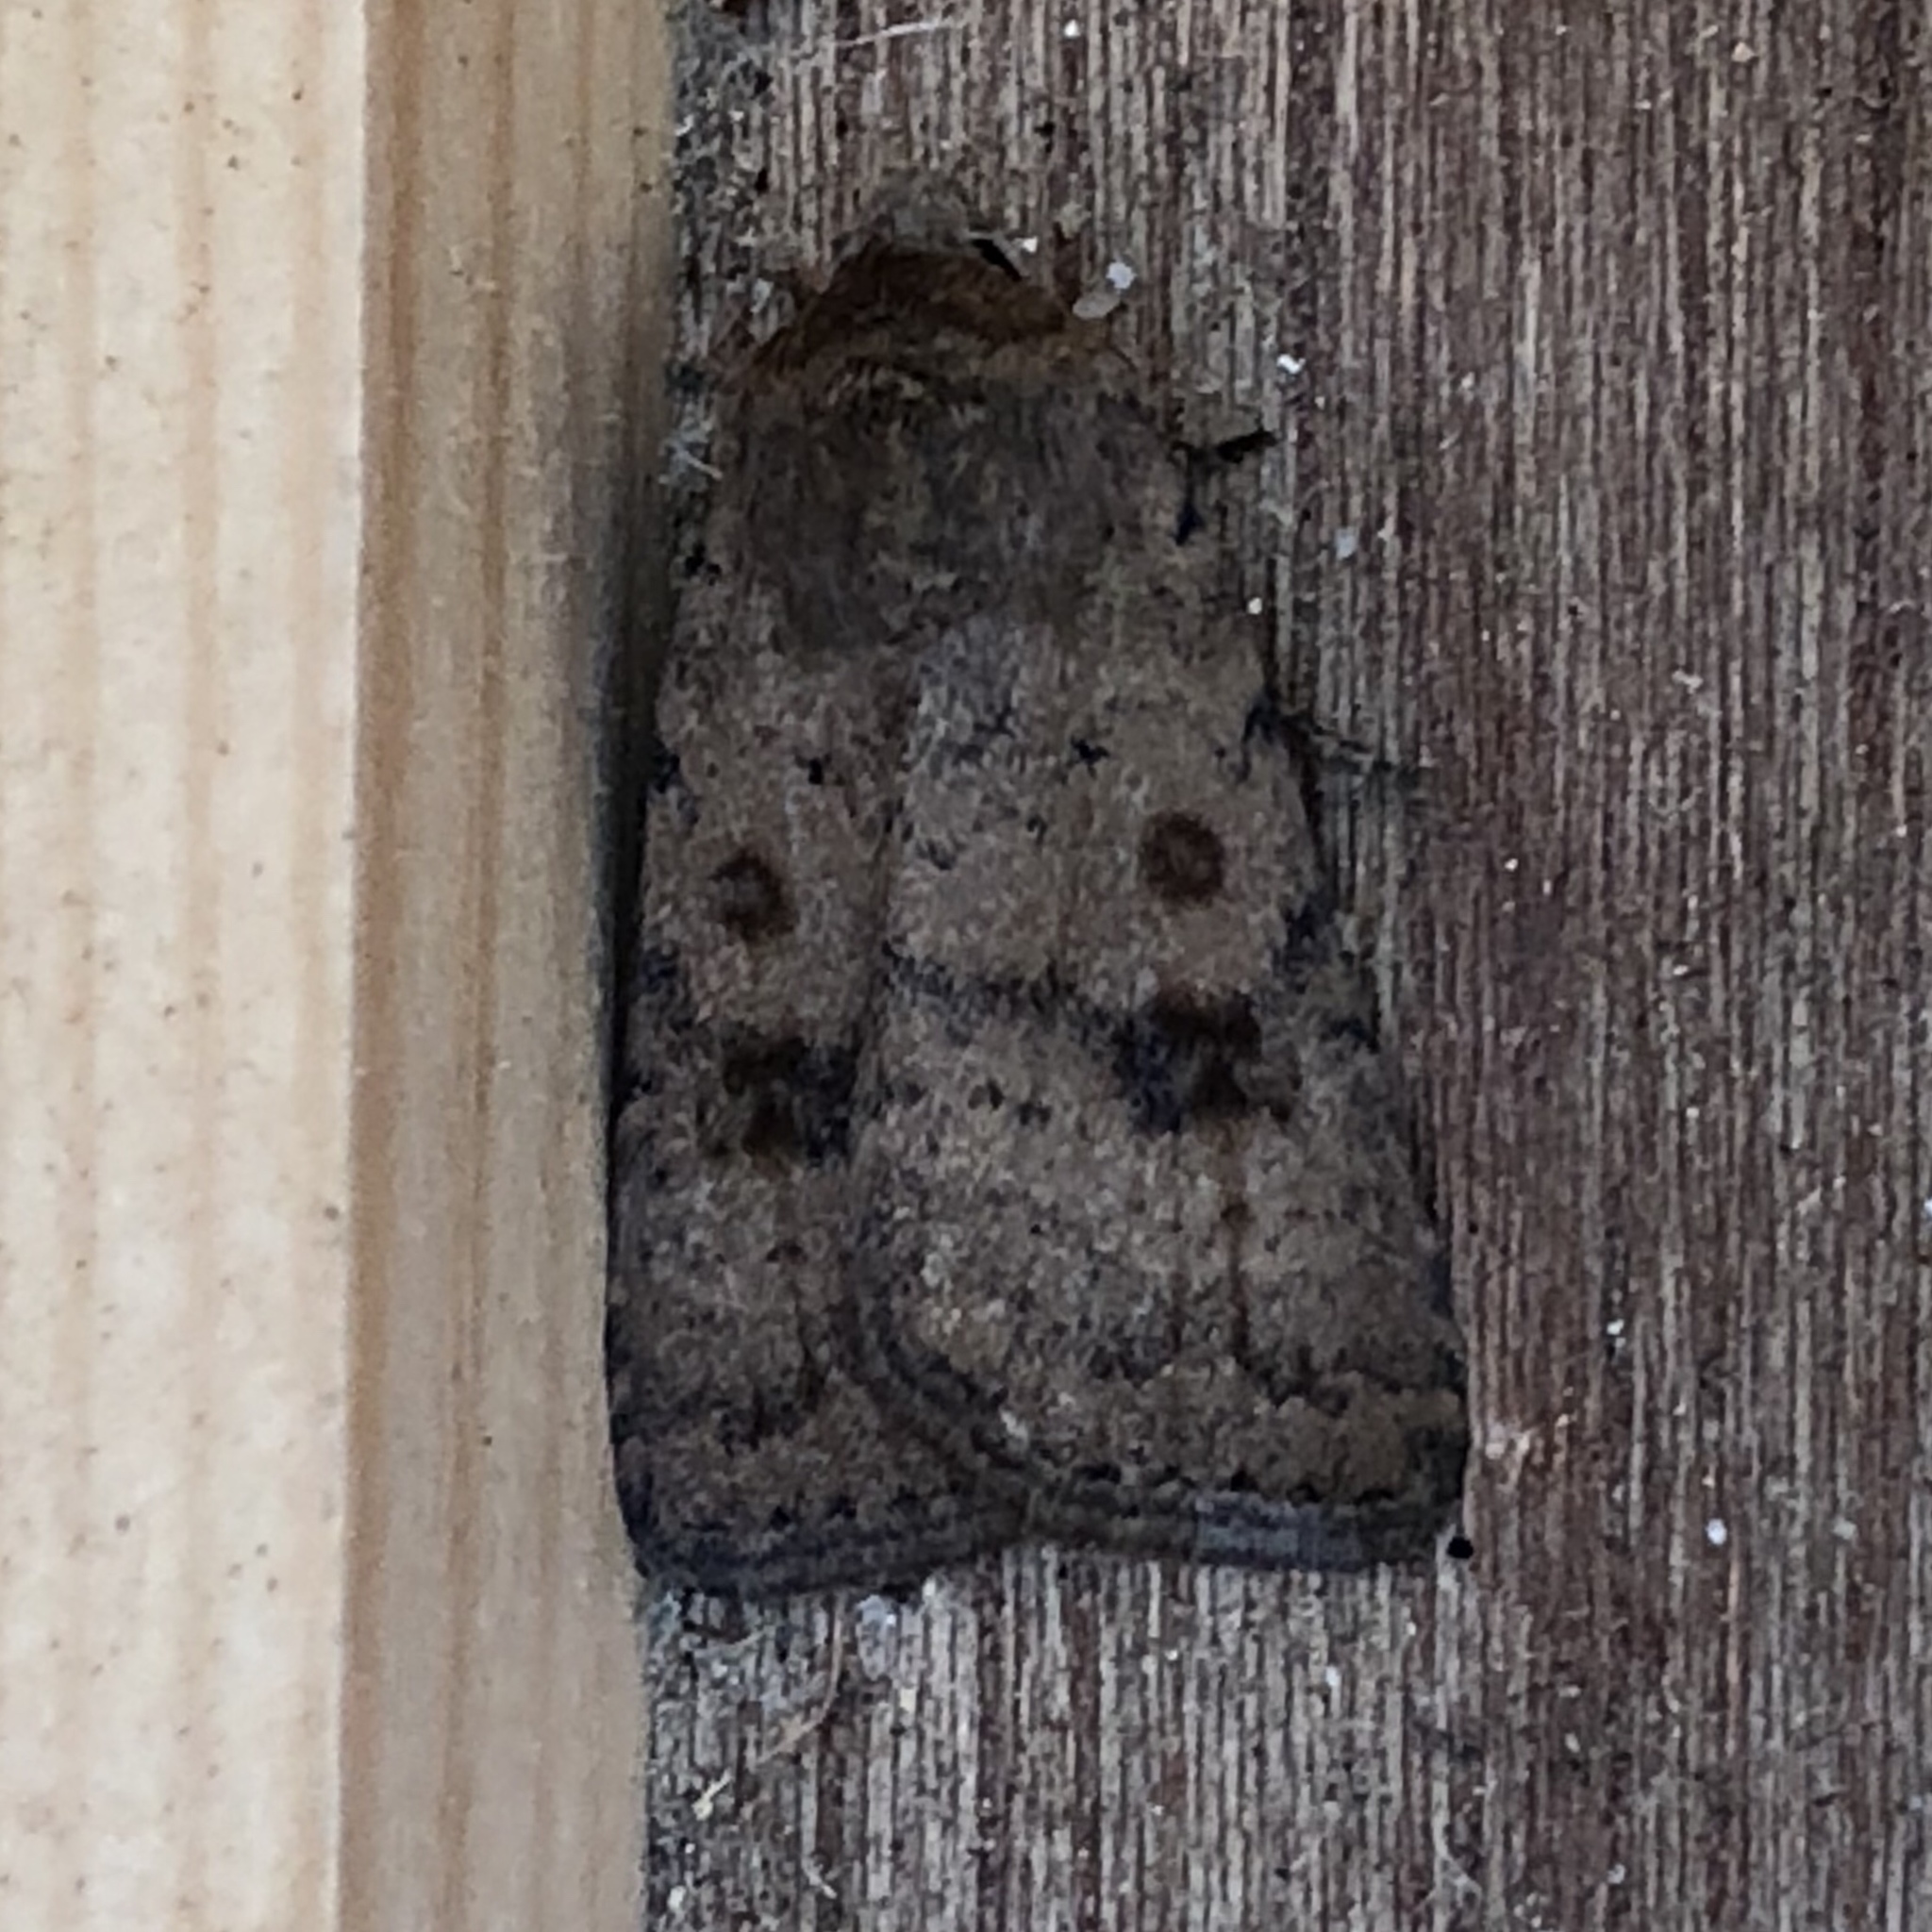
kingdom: Animalia
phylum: Arthropoda
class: Insecta
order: Lepidoptera
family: Noctuidae
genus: Caradrina
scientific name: Caradrina morpheus
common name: Mottled rustic
